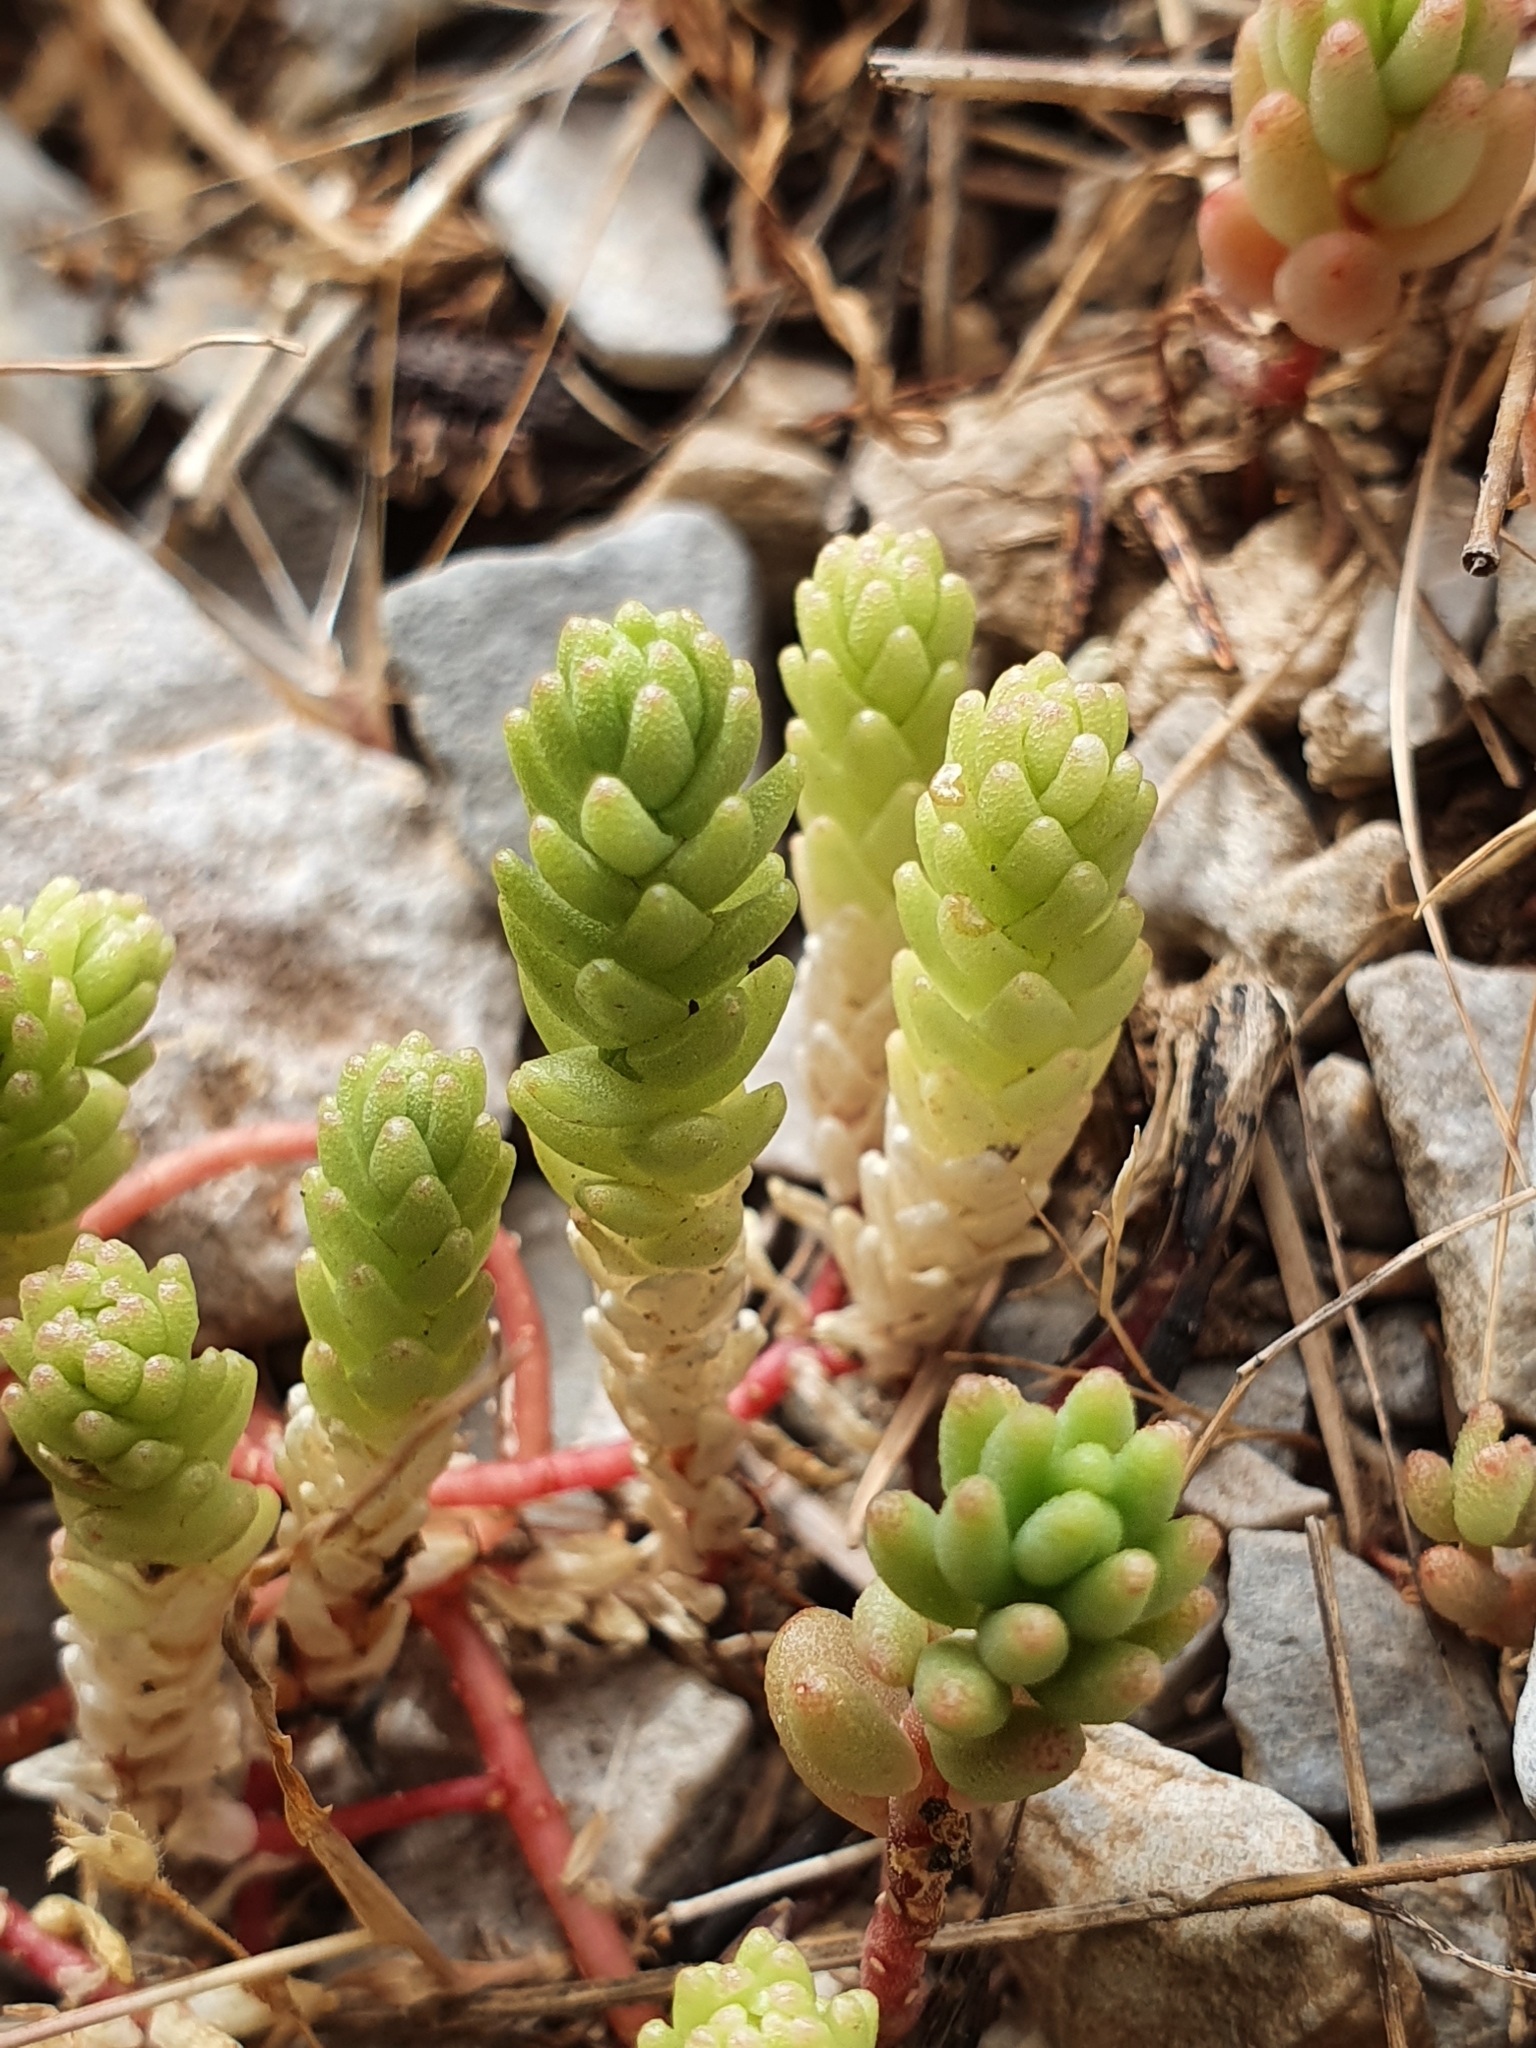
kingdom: Plantae
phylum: Tracheophyta
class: Magnoliopsida
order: Saxifragales
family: Crassulaceae
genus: Sedum
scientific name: Sedum acre
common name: Biting stonecrop
